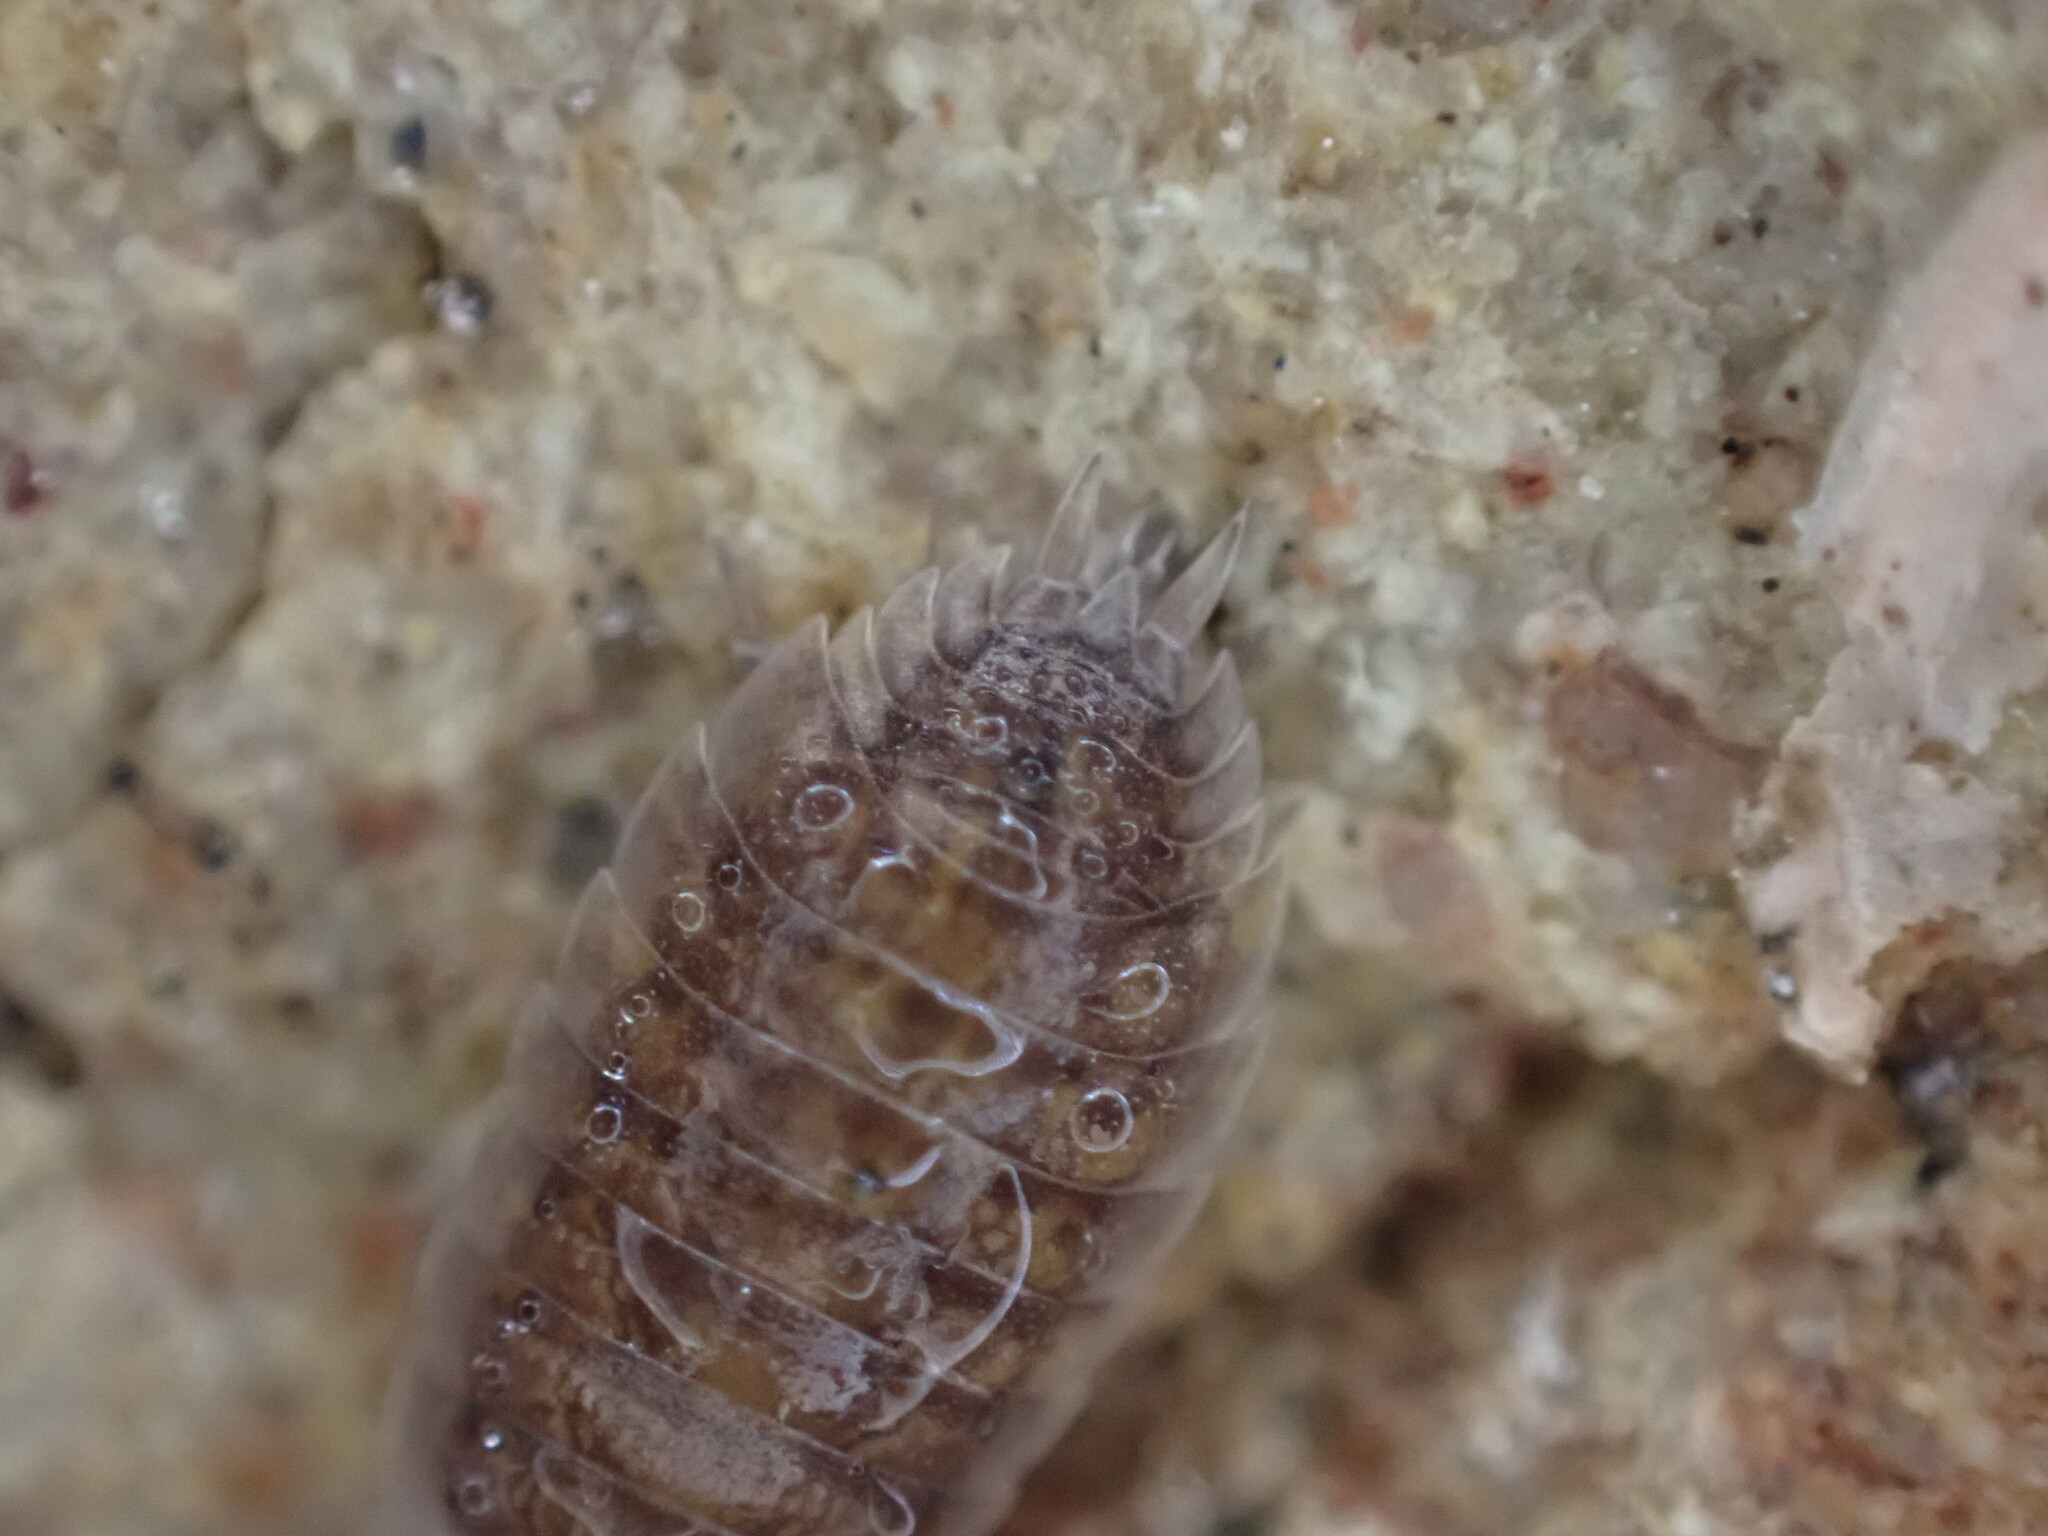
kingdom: Animalia
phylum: Arthropoda
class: Malacostraca
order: Isopoda
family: Porcellionidae
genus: Porcellio
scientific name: Porcellio orarum
